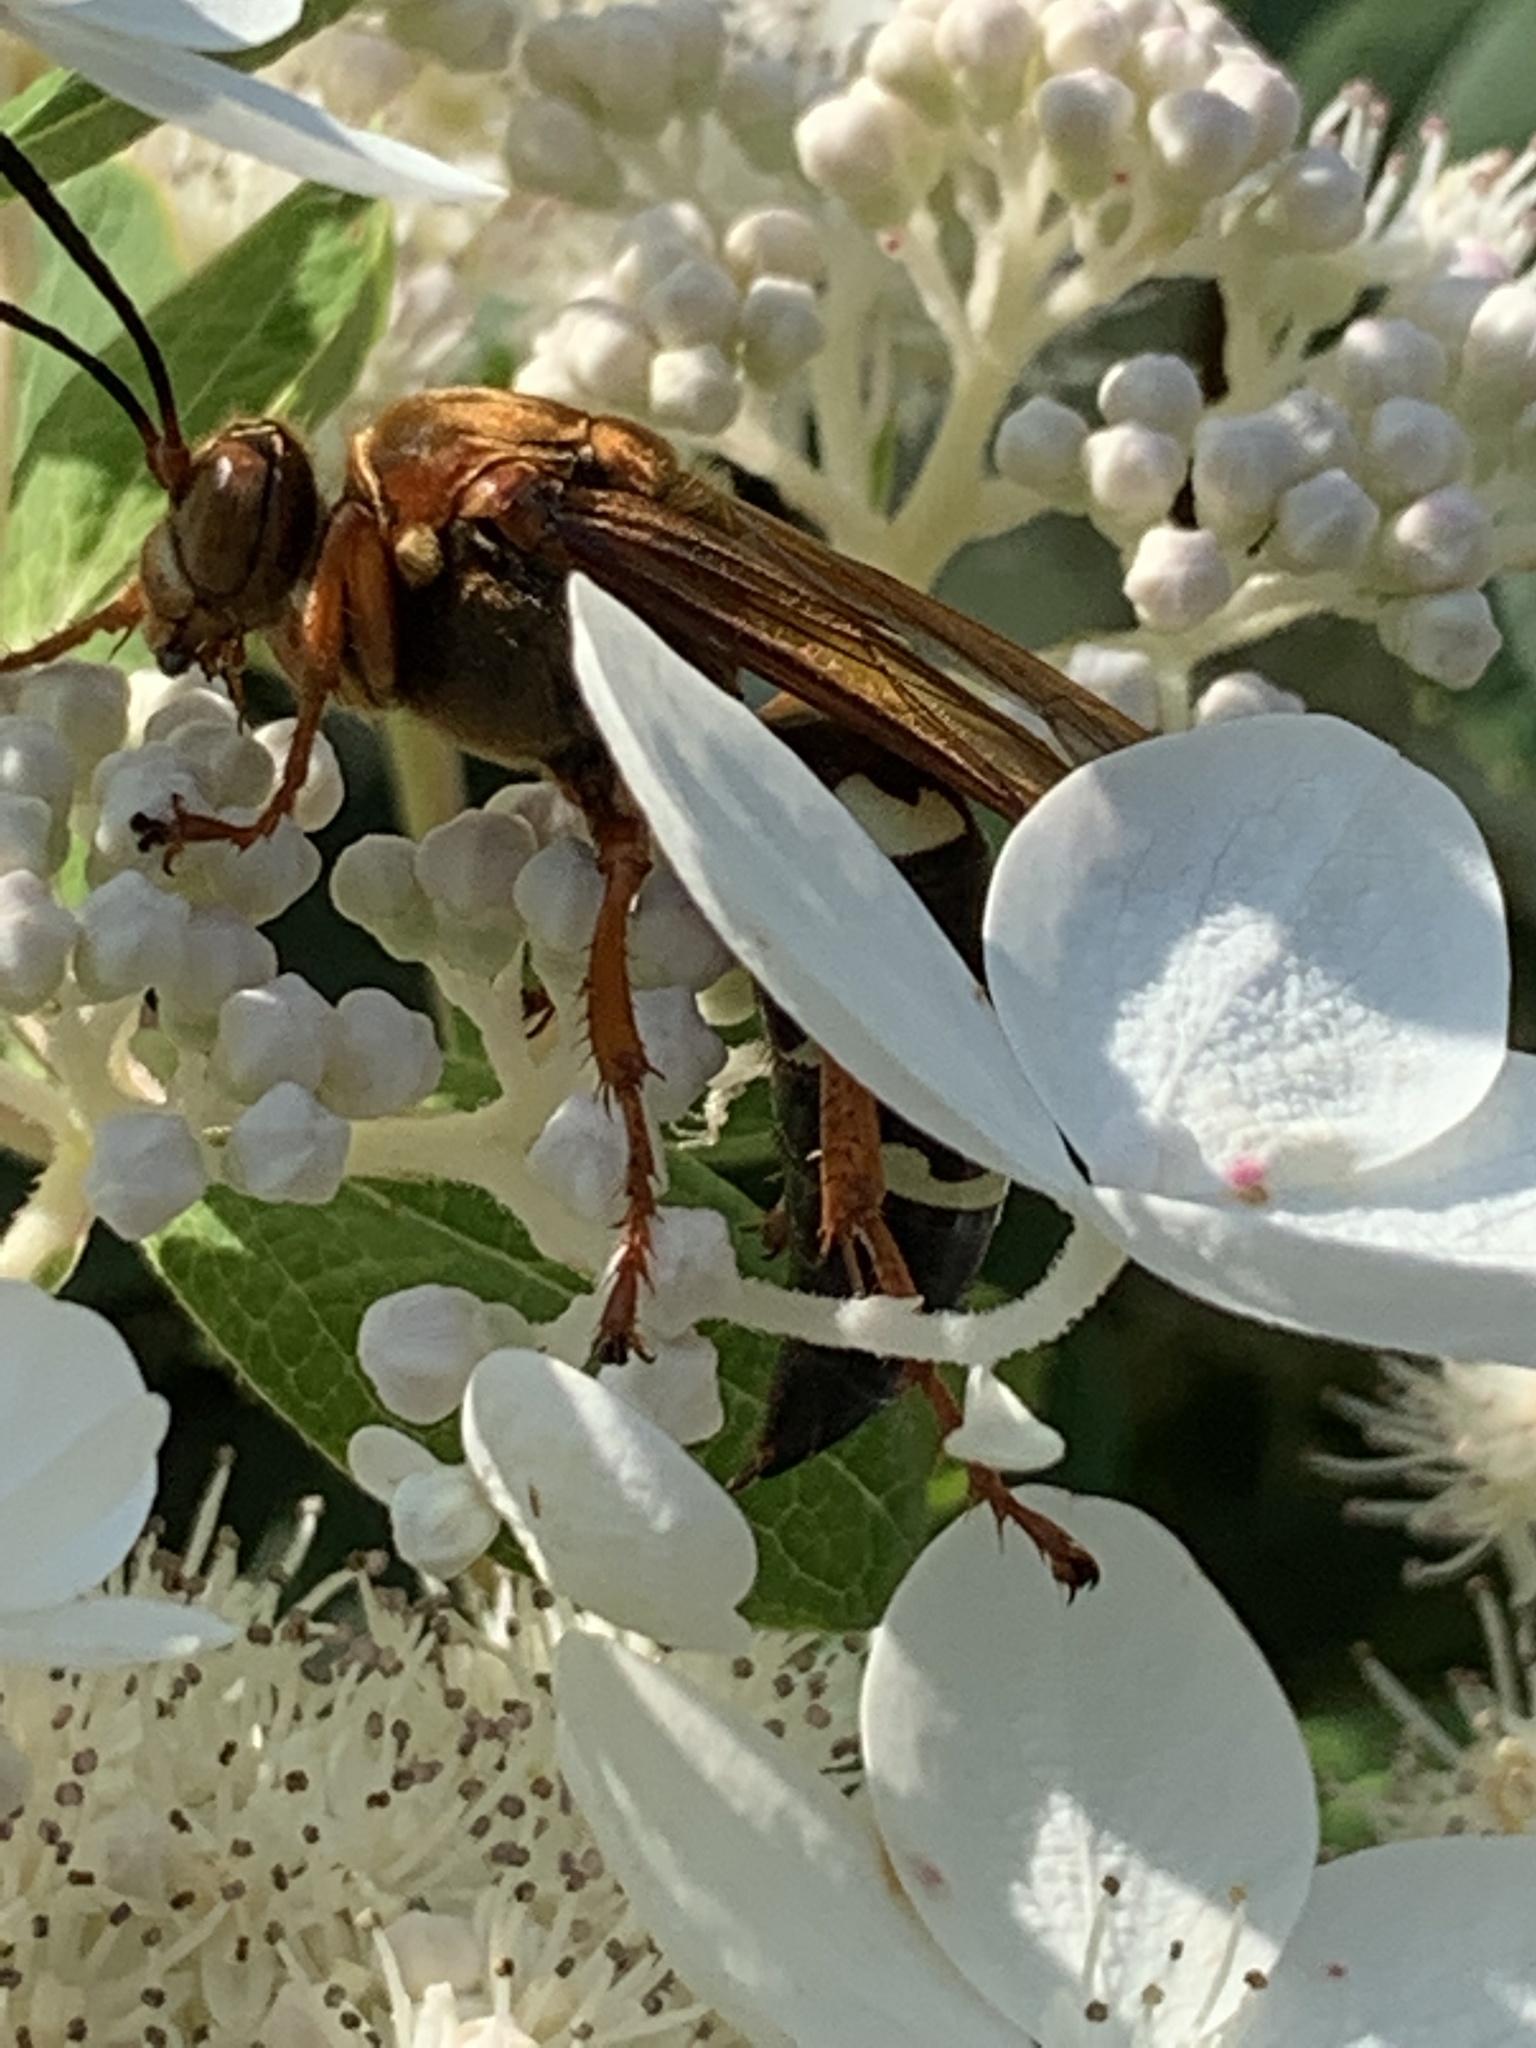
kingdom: Animalia
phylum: Arthropoda
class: Insecta
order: Hymenoptera
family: Crabronidae
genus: Sphecius
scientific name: Sphecius speciosus
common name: Cicada killer
